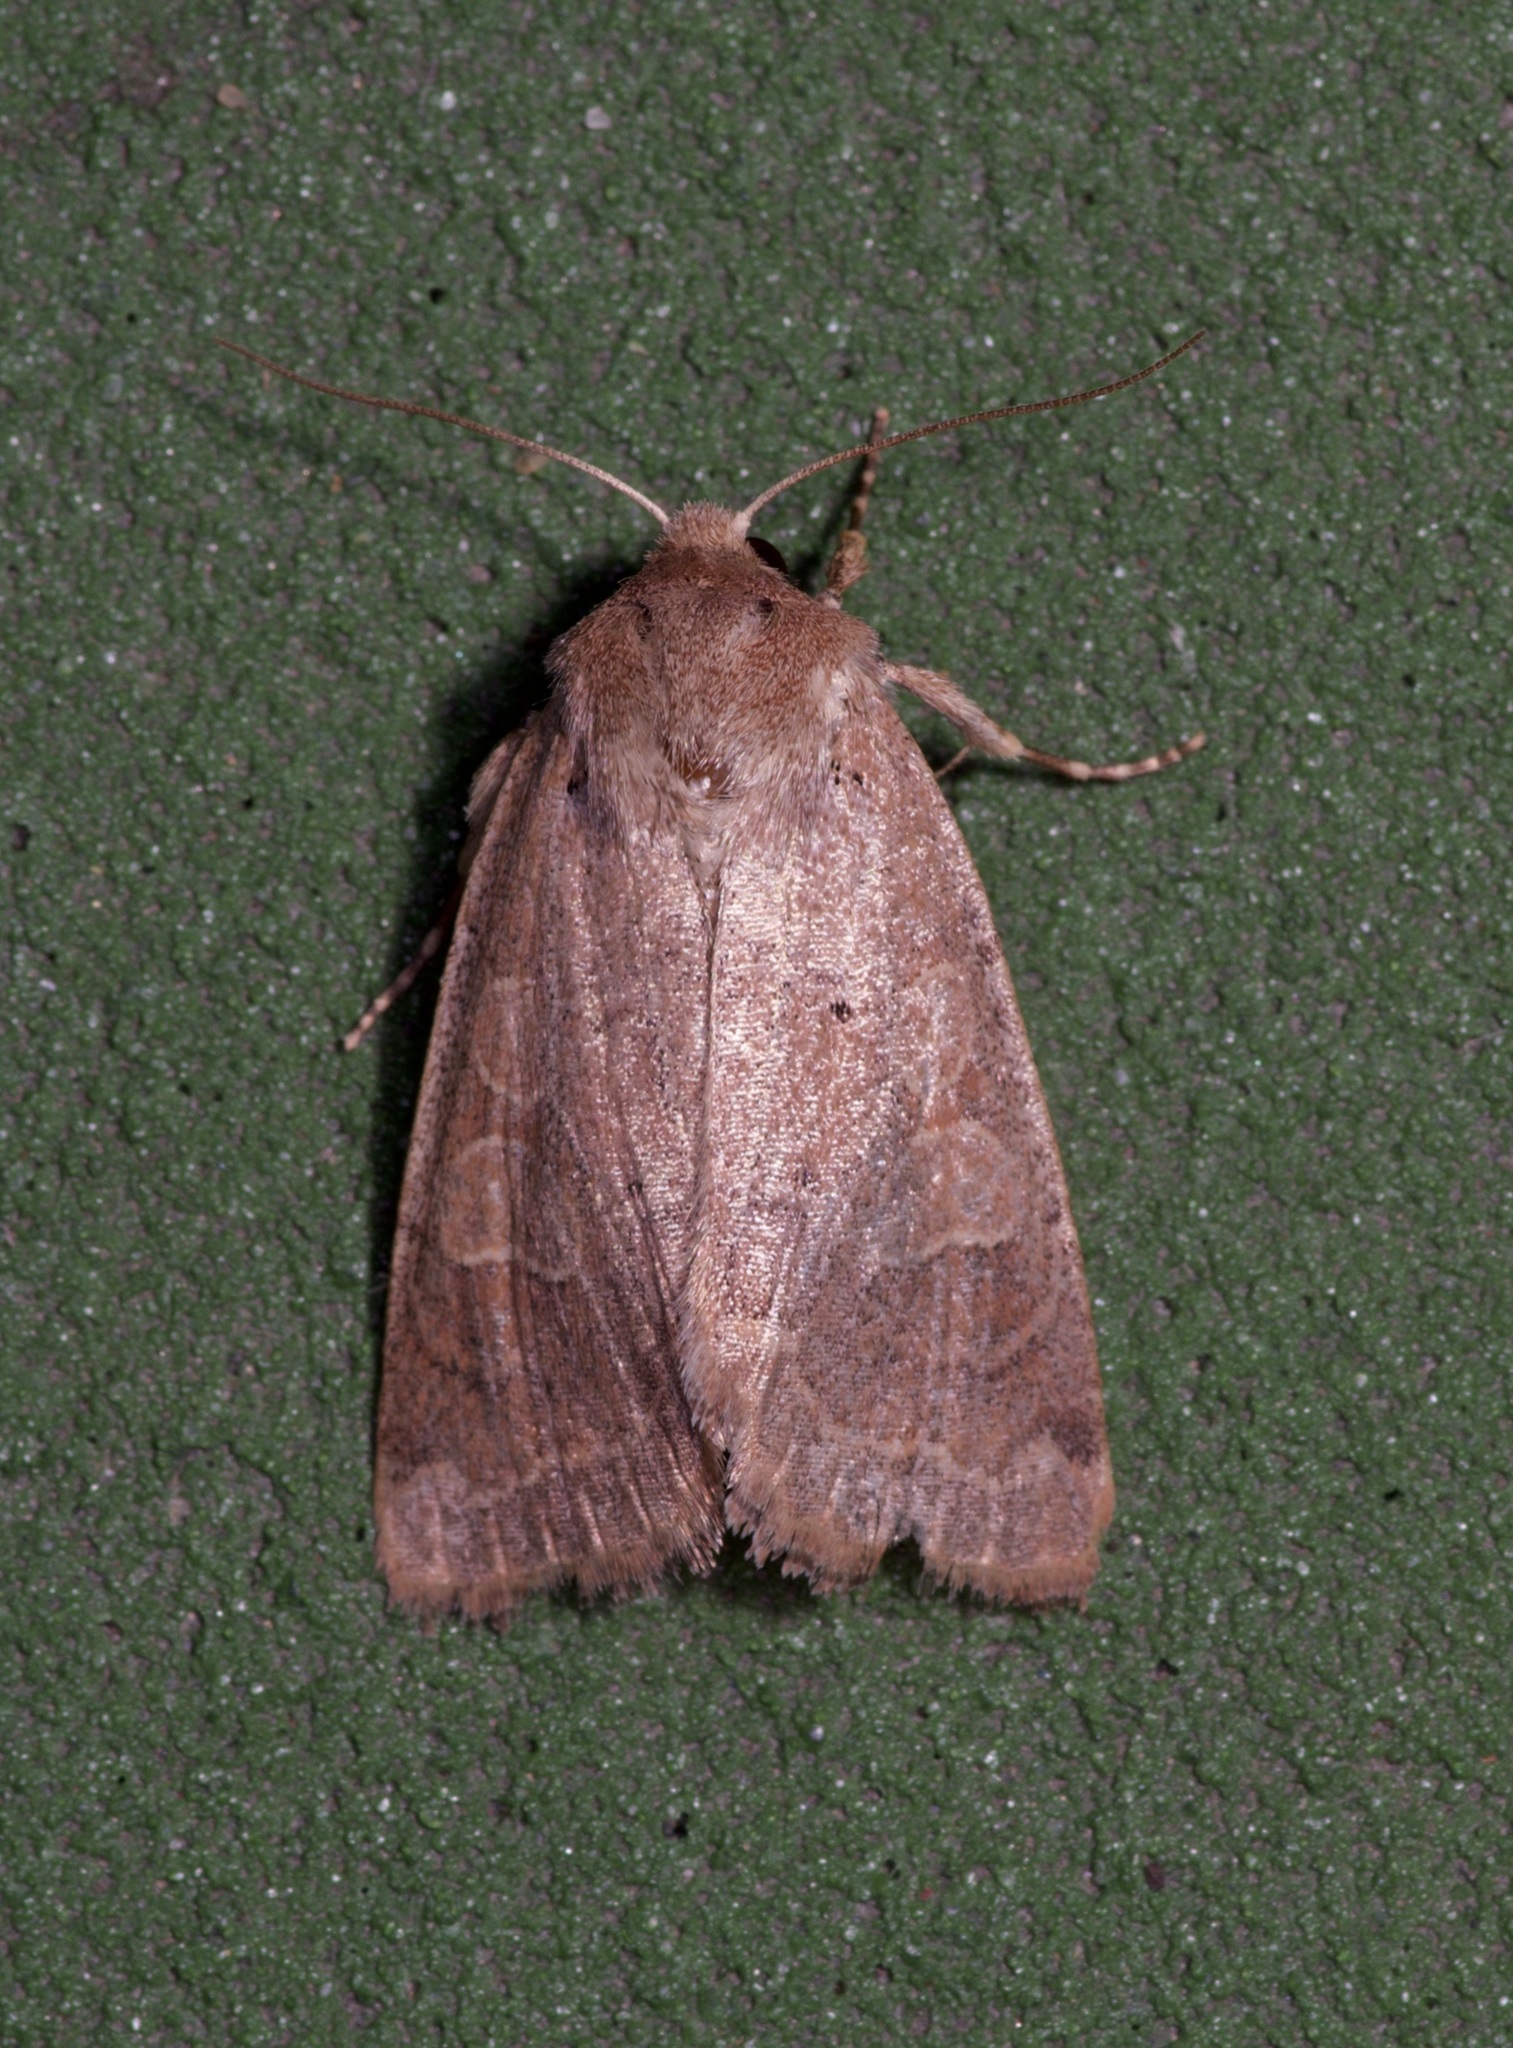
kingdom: Animalia
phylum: Arthropoda
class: Insecta
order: Lepidoptera
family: Noctuidae
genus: Kocakina
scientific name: Kocakina fidelis
